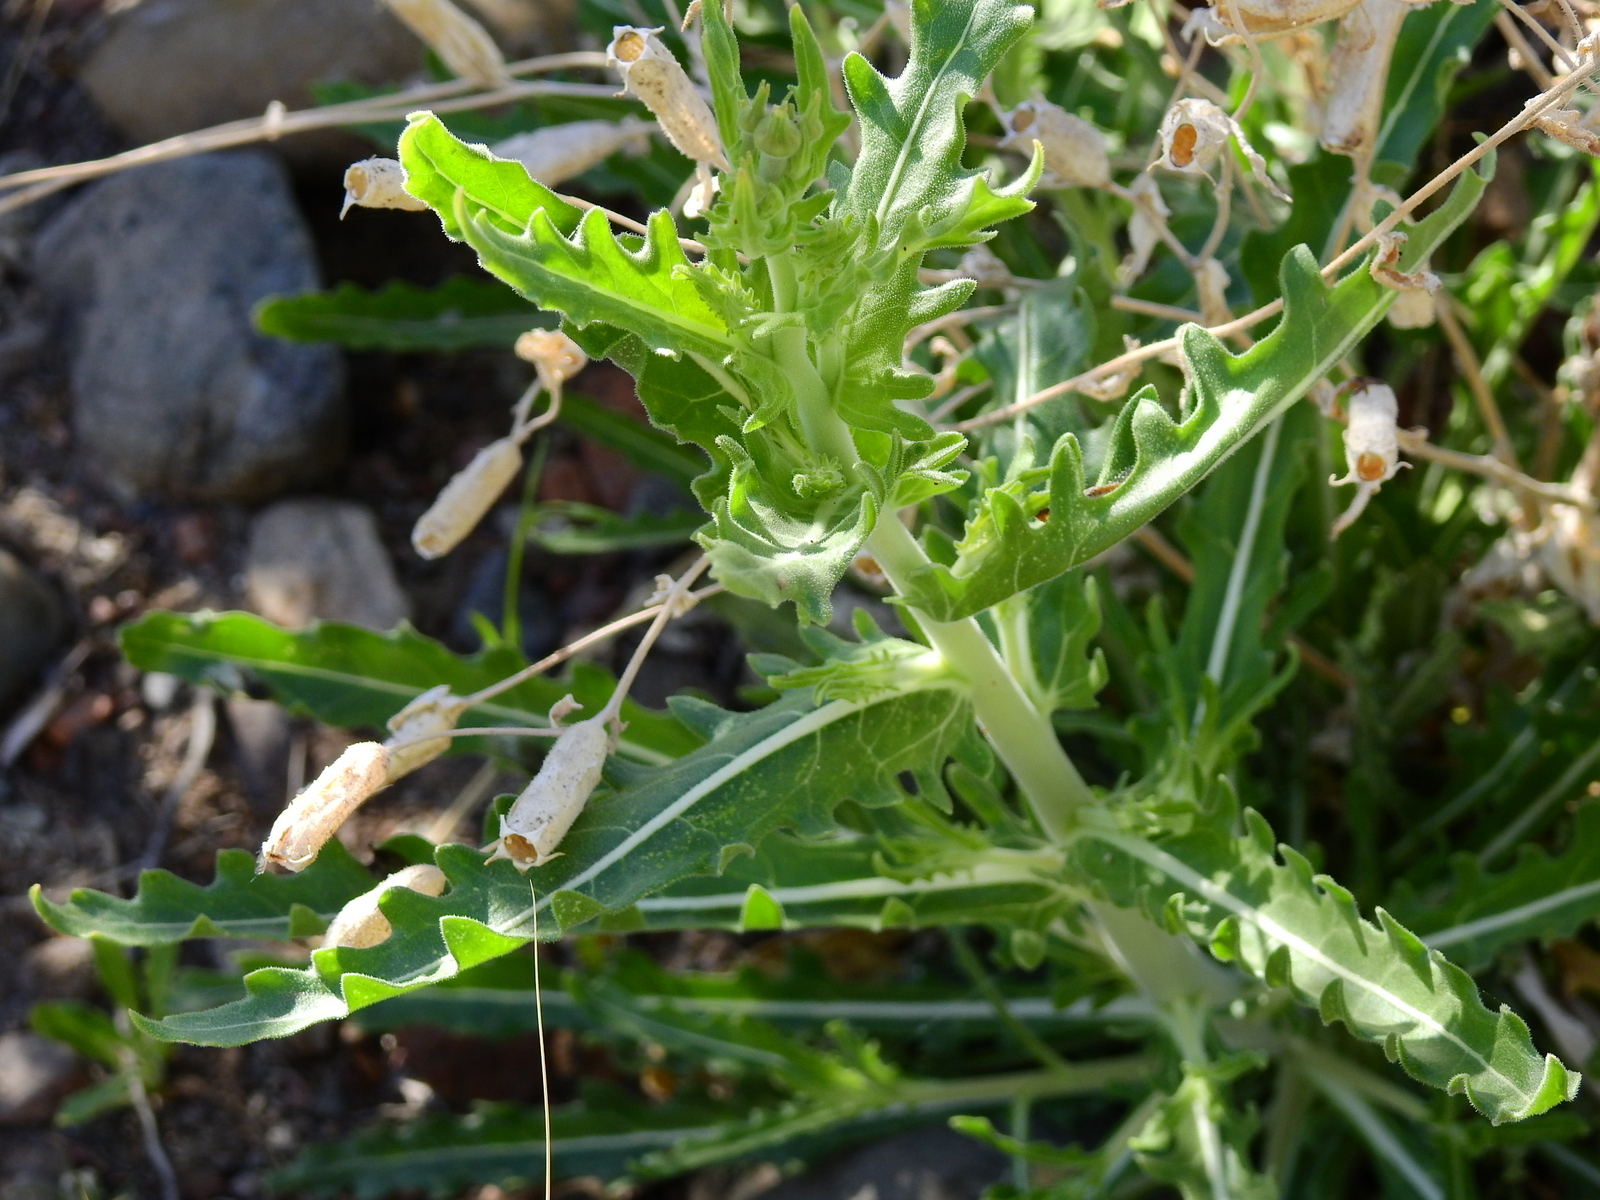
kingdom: Plantae
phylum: Tracheophyta
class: Magnoliopsida
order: Cornales
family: Loasaceae
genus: Mentzelia
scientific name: Mentzelia albescens
